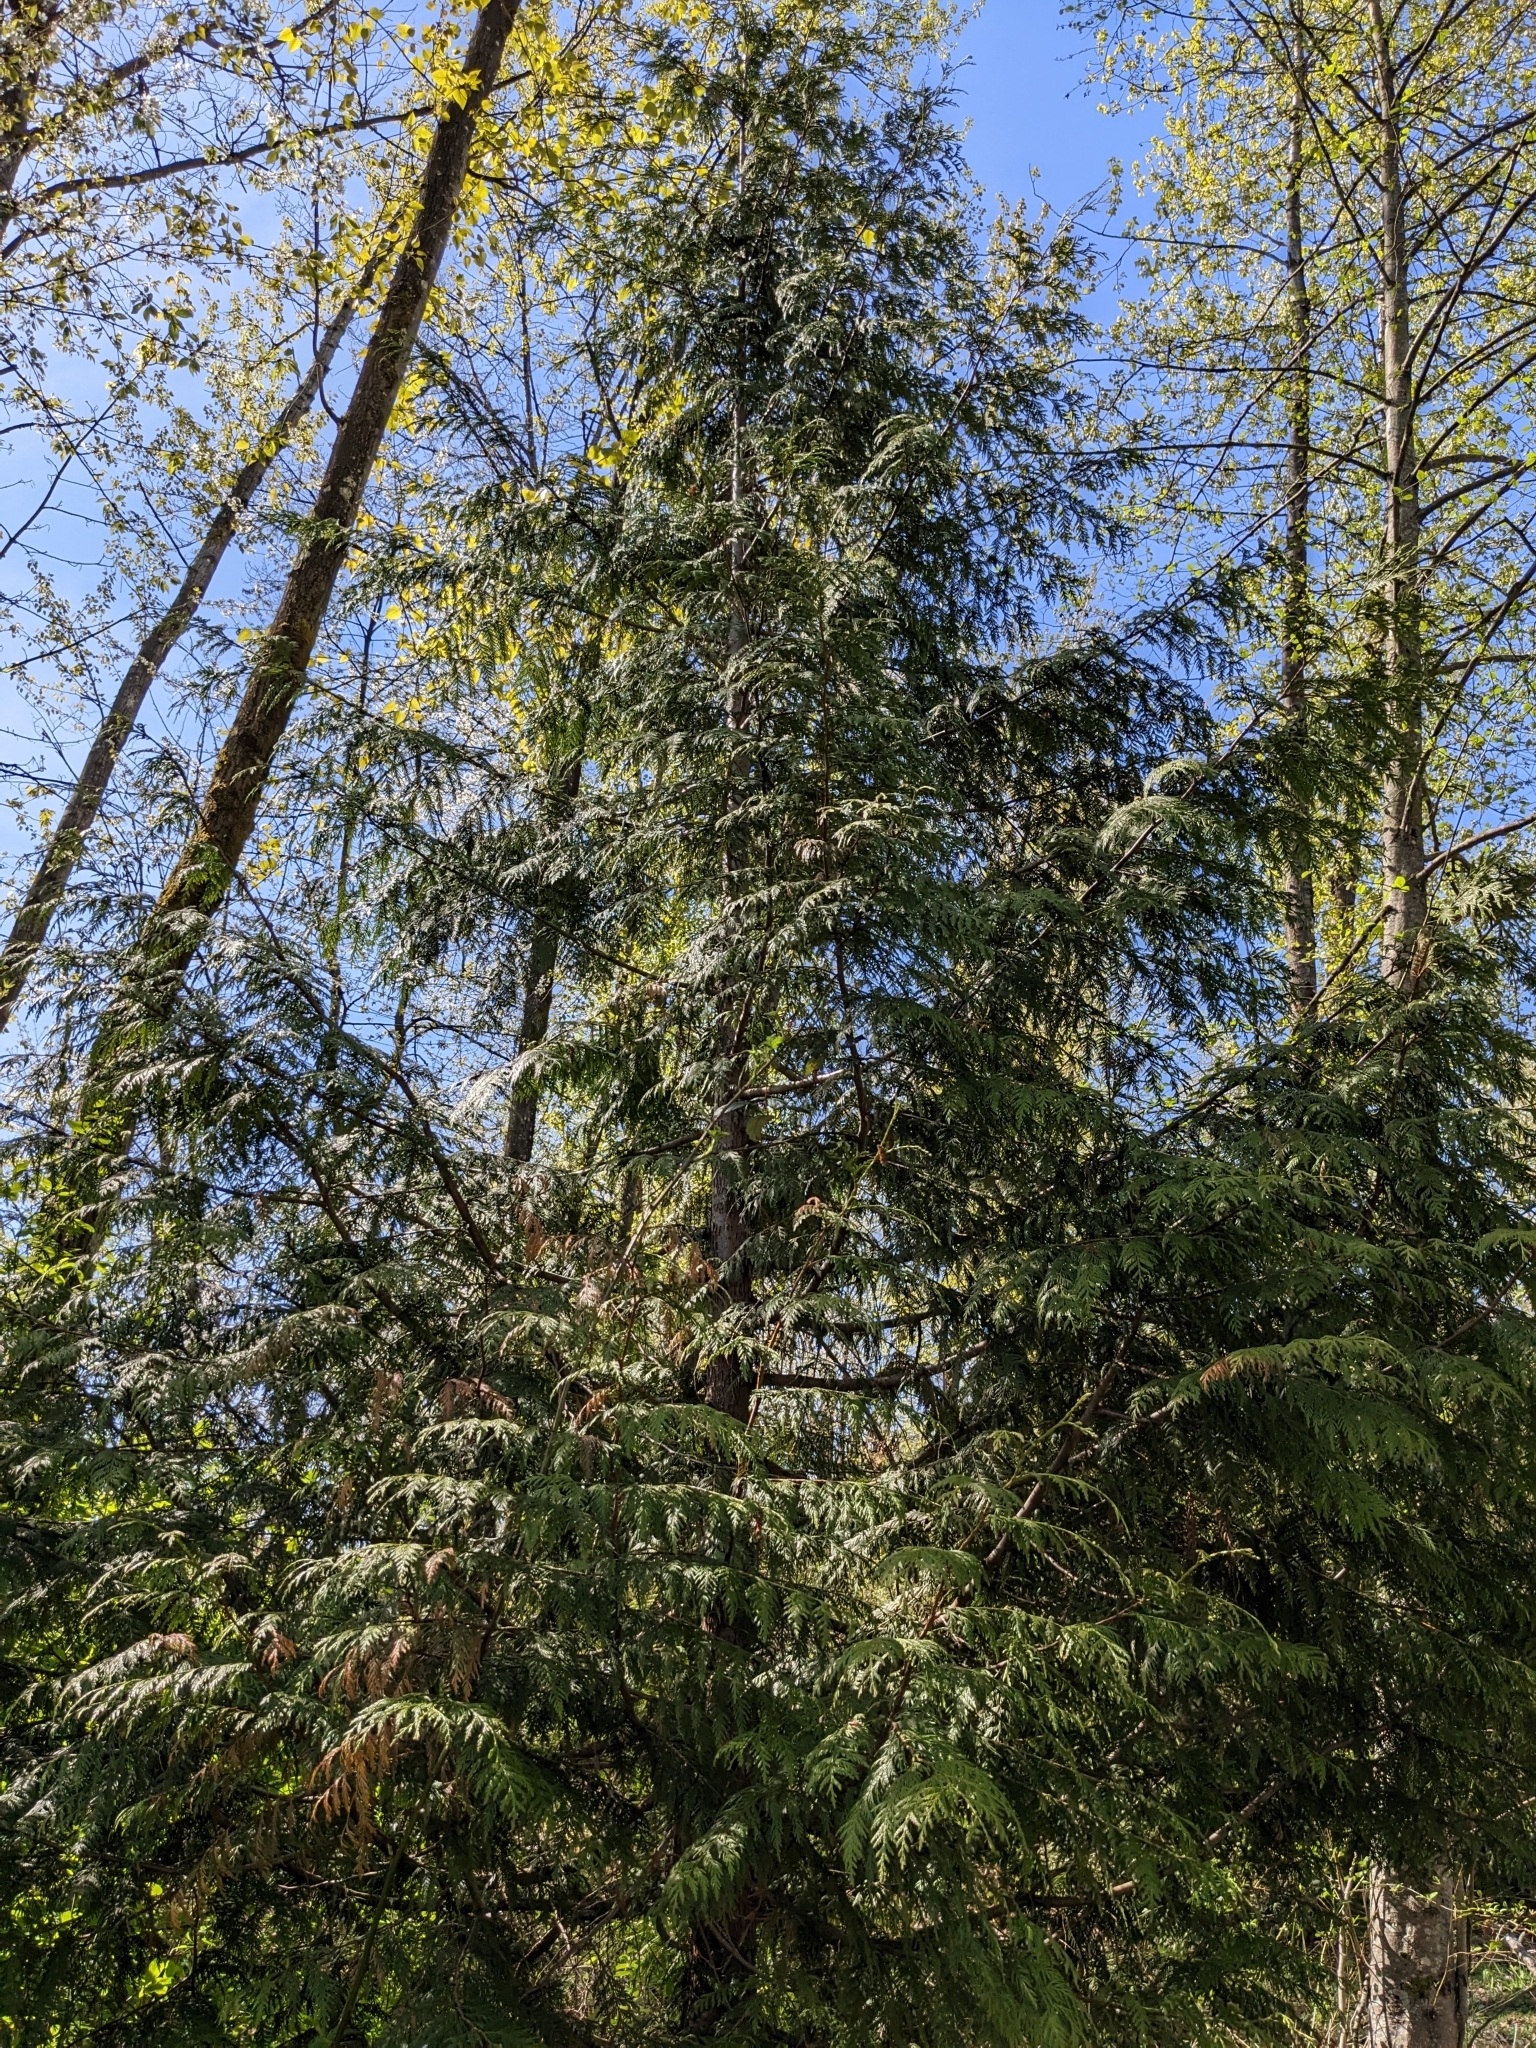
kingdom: Plantae
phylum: Tracheophyta
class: Pinopsida
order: Pinales
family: Cupressaceae
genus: Thuja
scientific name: Thuja plicata
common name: Western red-cedar
